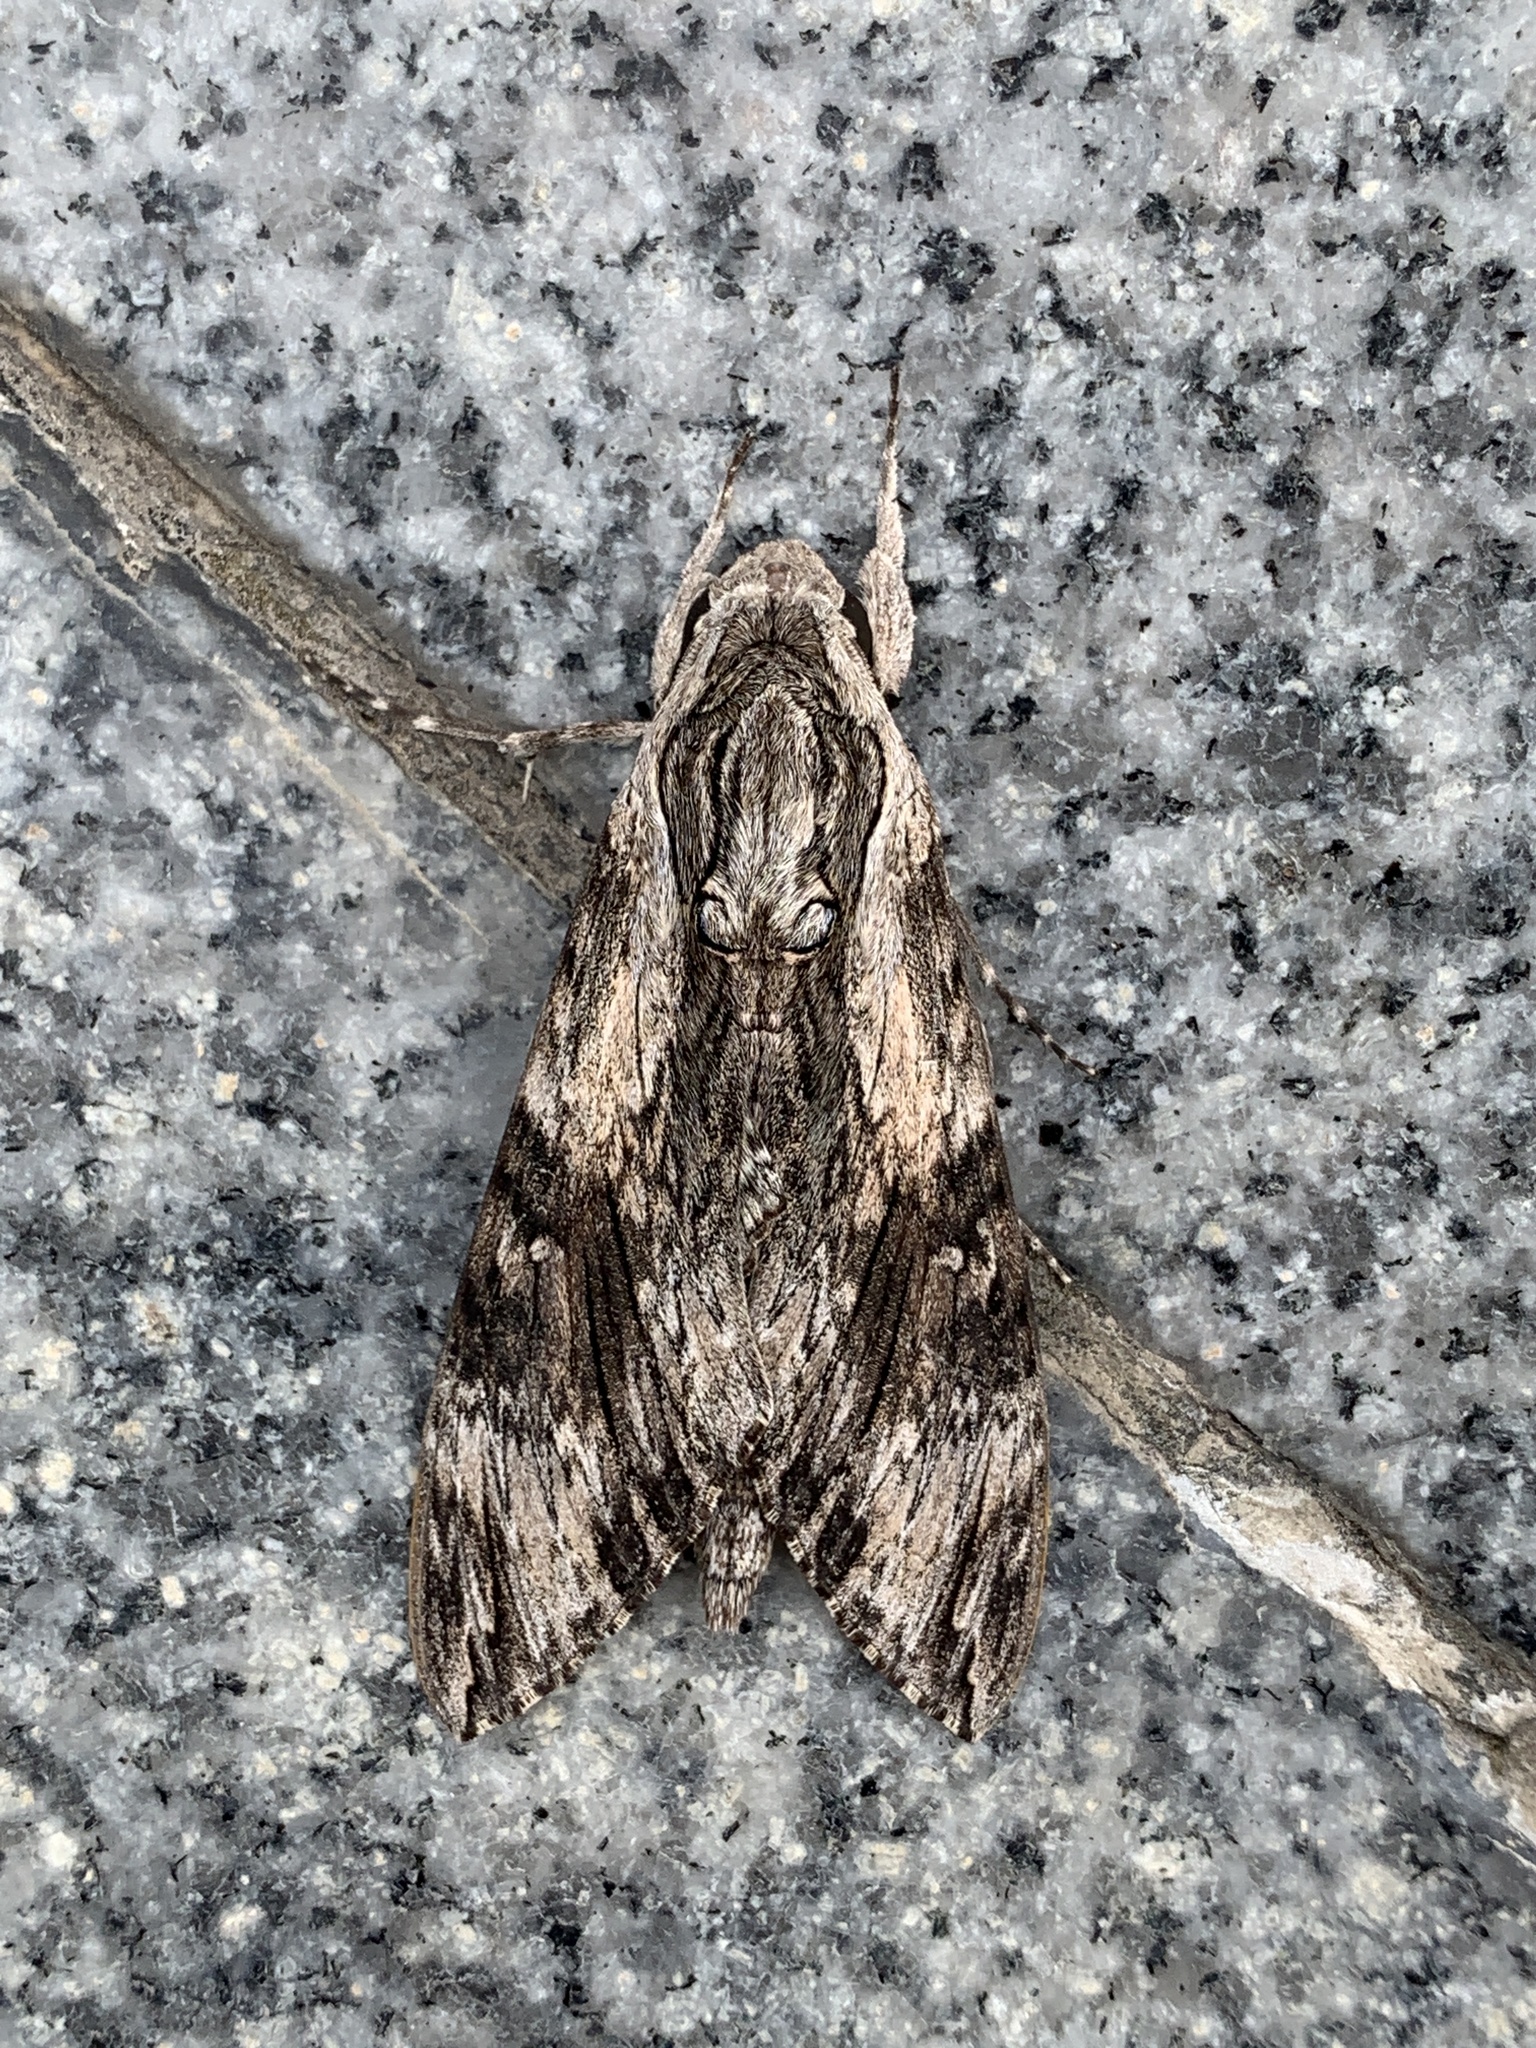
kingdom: Animalia
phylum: Arthropoda
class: Insecta
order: Lepidoptera
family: Sphingidae
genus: Agrius
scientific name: Agrius convolvuli
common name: Convolvulus hawkmoth
